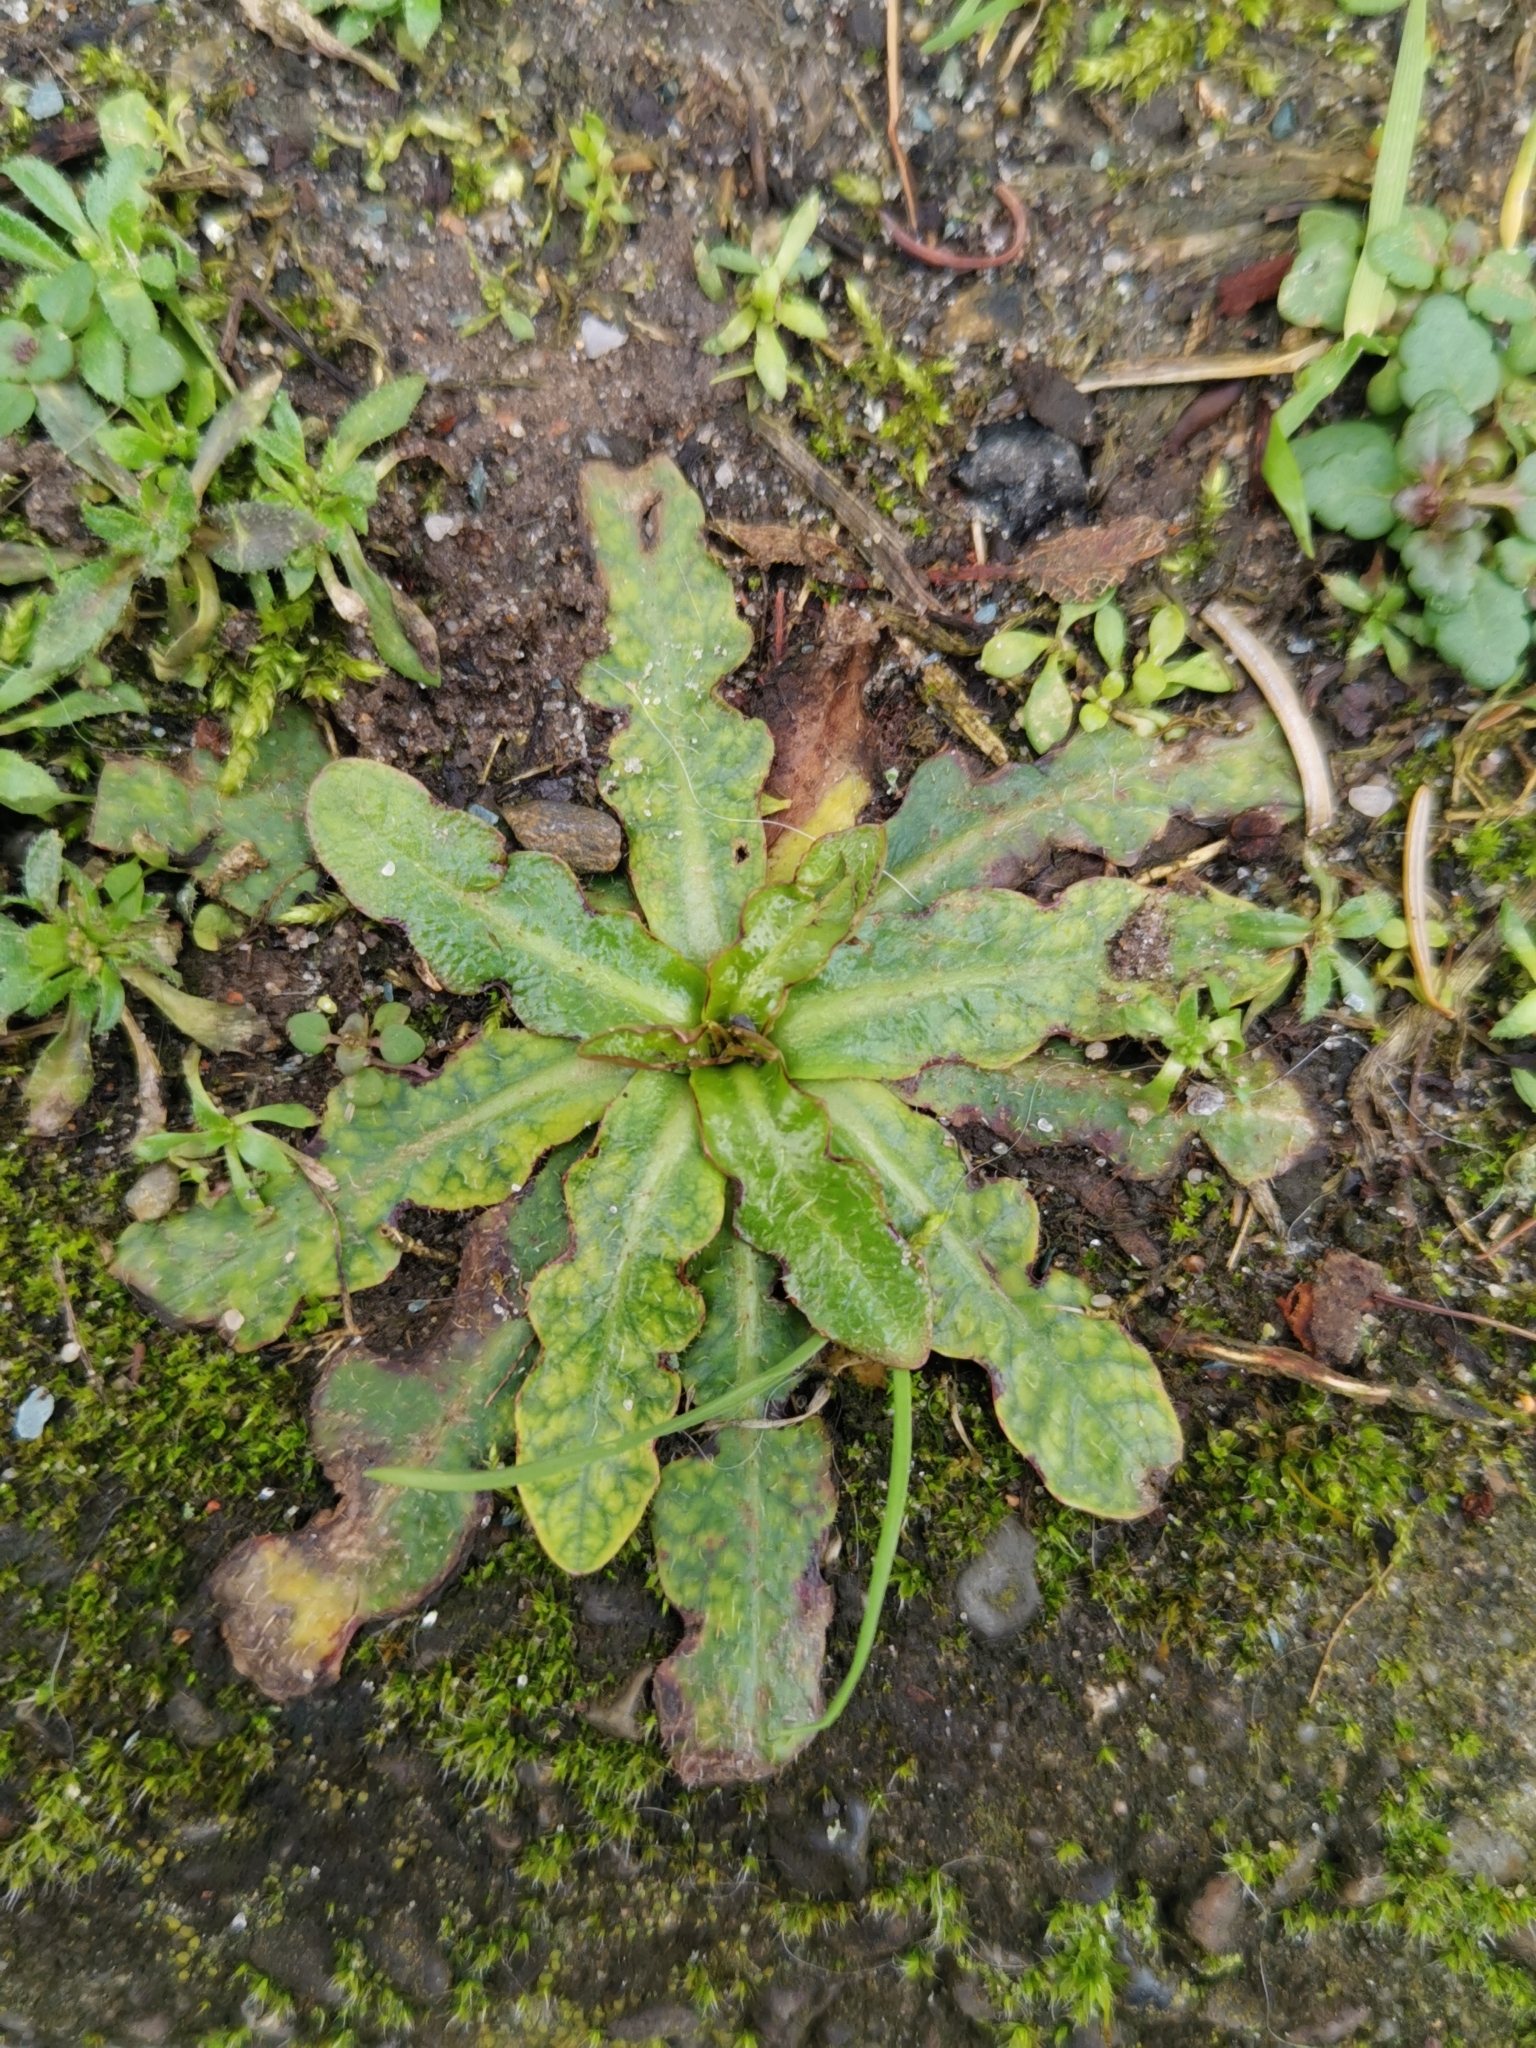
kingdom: Plantae
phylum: Tracheophyta
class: Magnoliopsida
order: Asterales
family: Asteraceae
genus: Hypochaeris
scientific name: Hypochaeris radicata
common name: Flatweed
